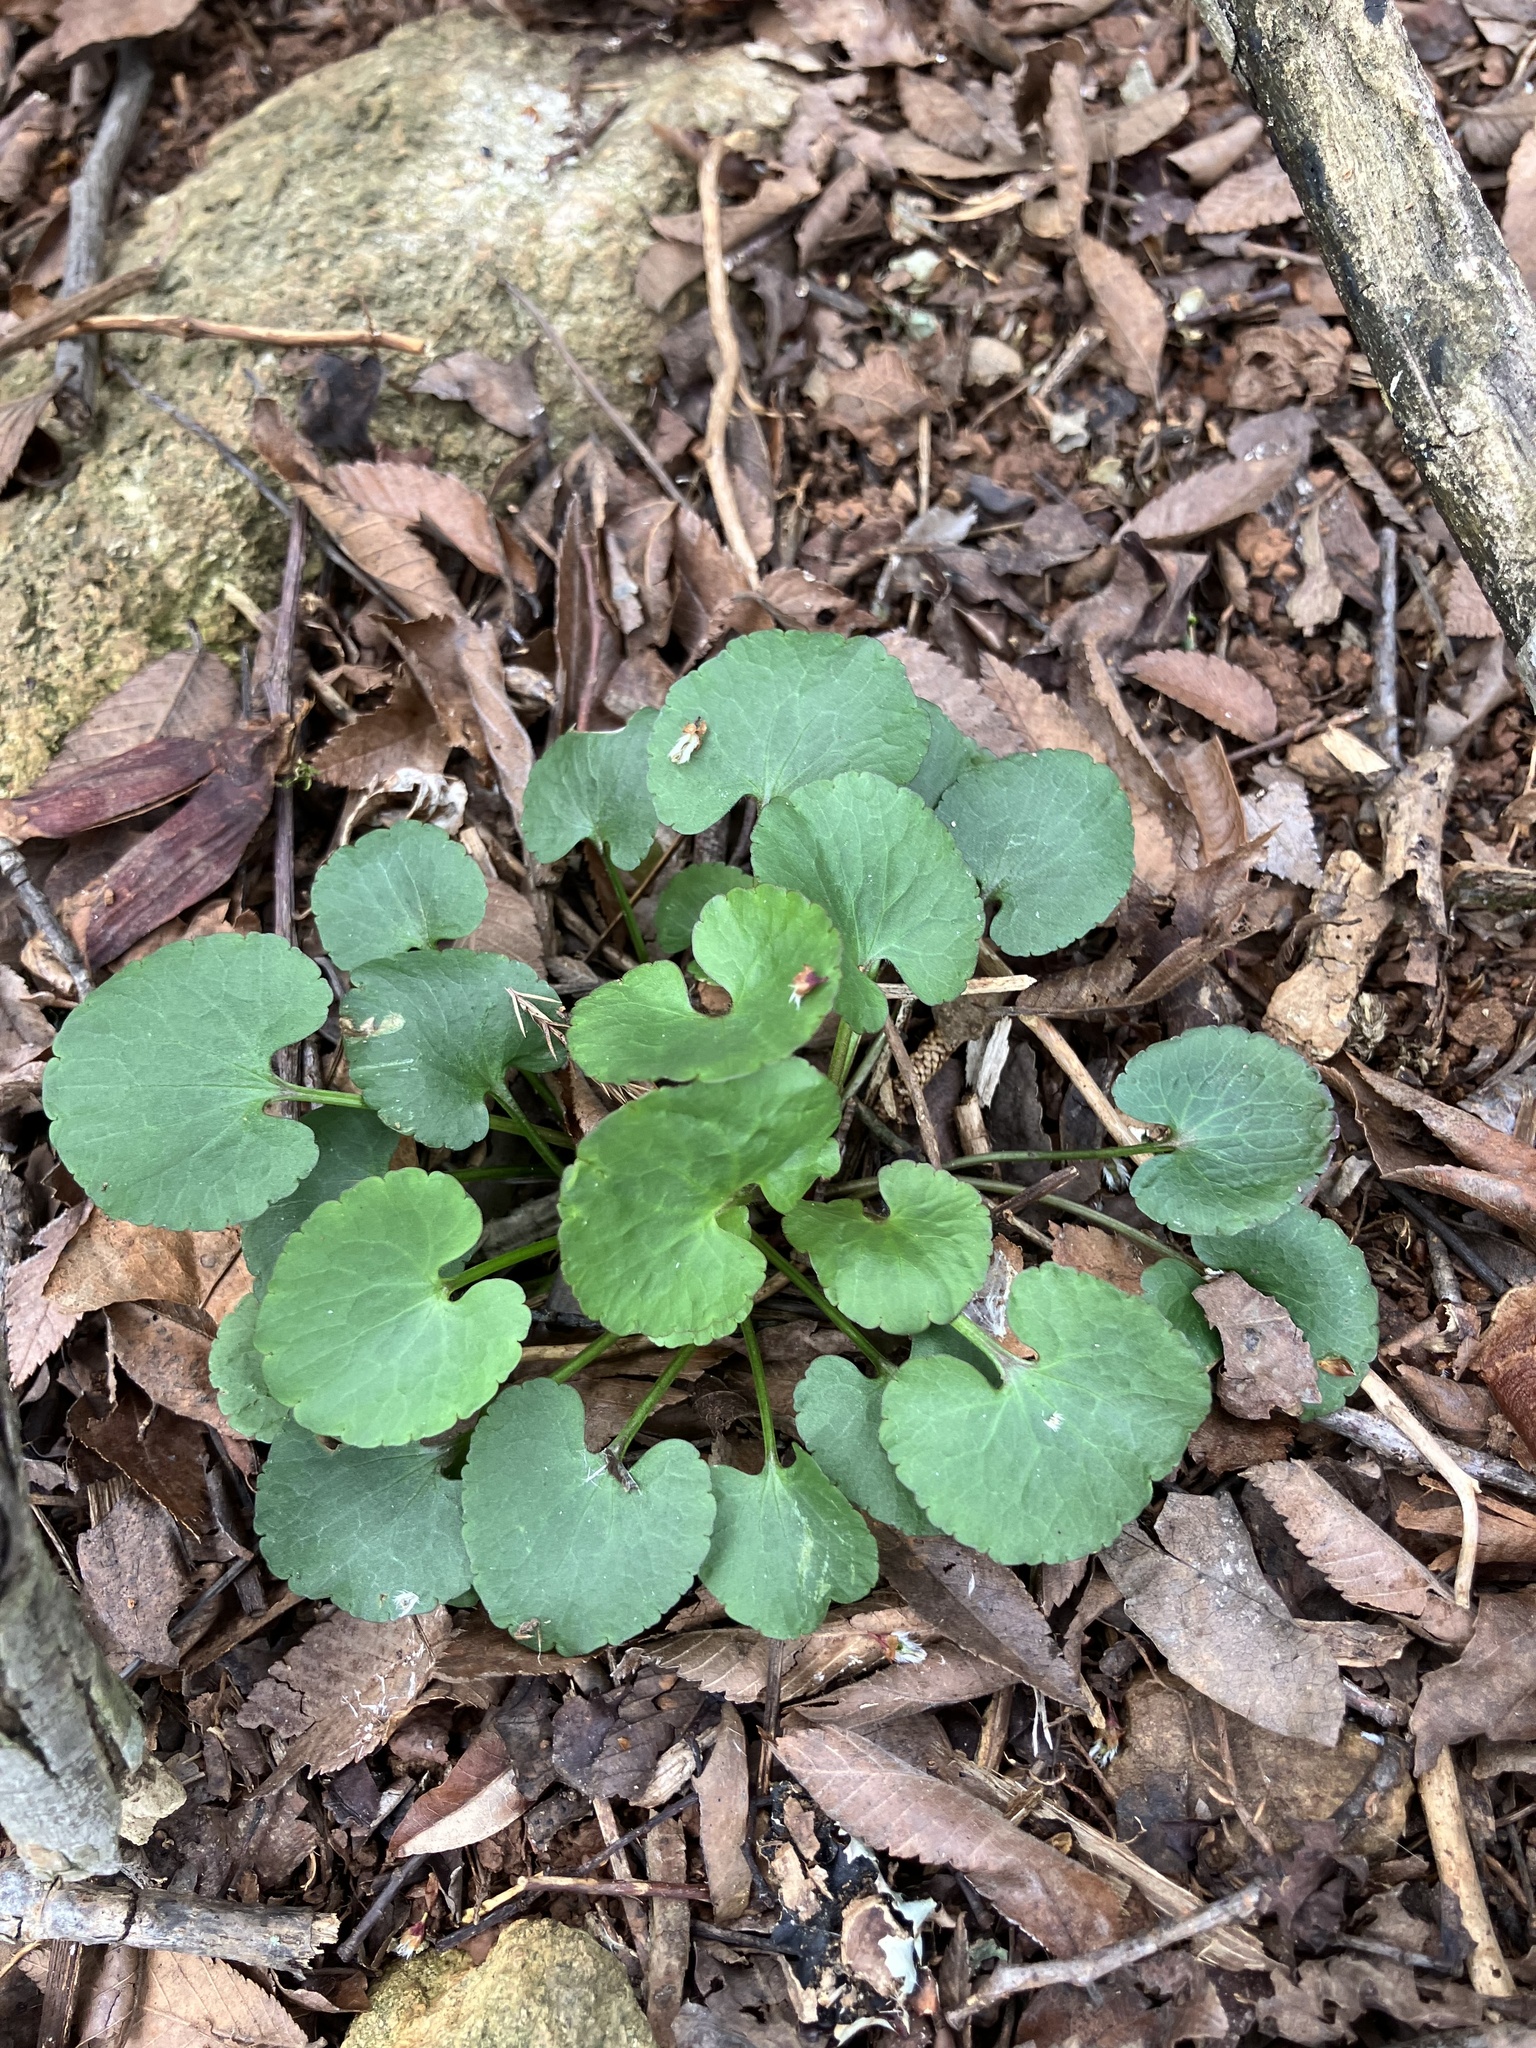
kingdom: Plantae
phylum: Tracheophyta
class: Magnoliopsida
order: Ranunculales
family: Ranunculaceae
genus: Ranunculus
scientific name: Ranunculus abortivus
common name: Early wood buttercup
